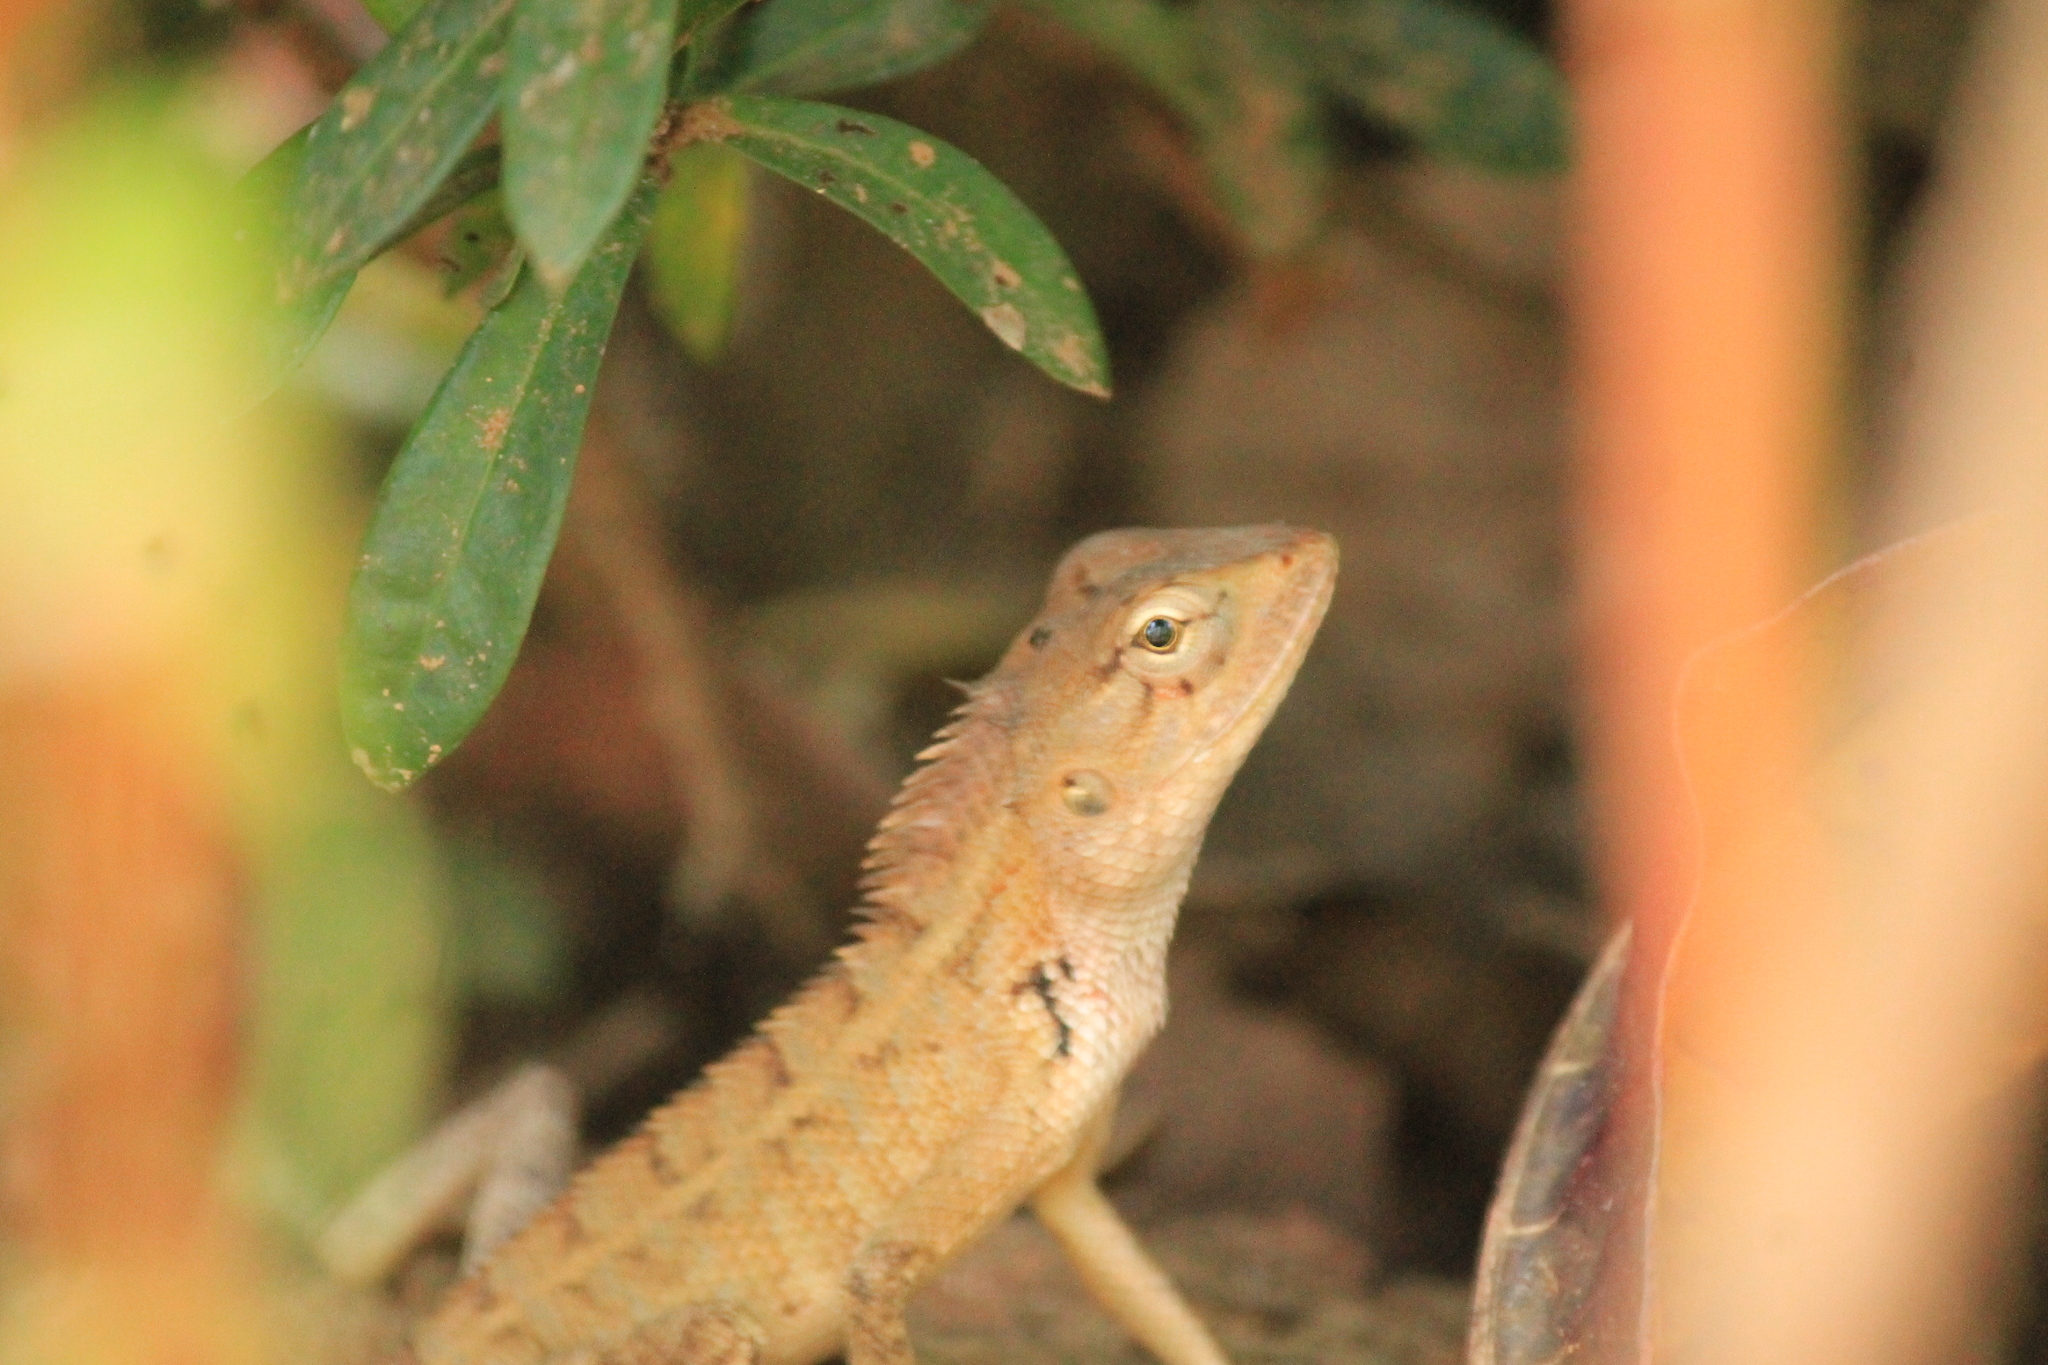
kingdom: Animalia
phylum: Chordata
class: Squamata
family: Agamidae
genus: Calotes
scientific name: Calotes versicolor
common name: Oriental garden lizard
